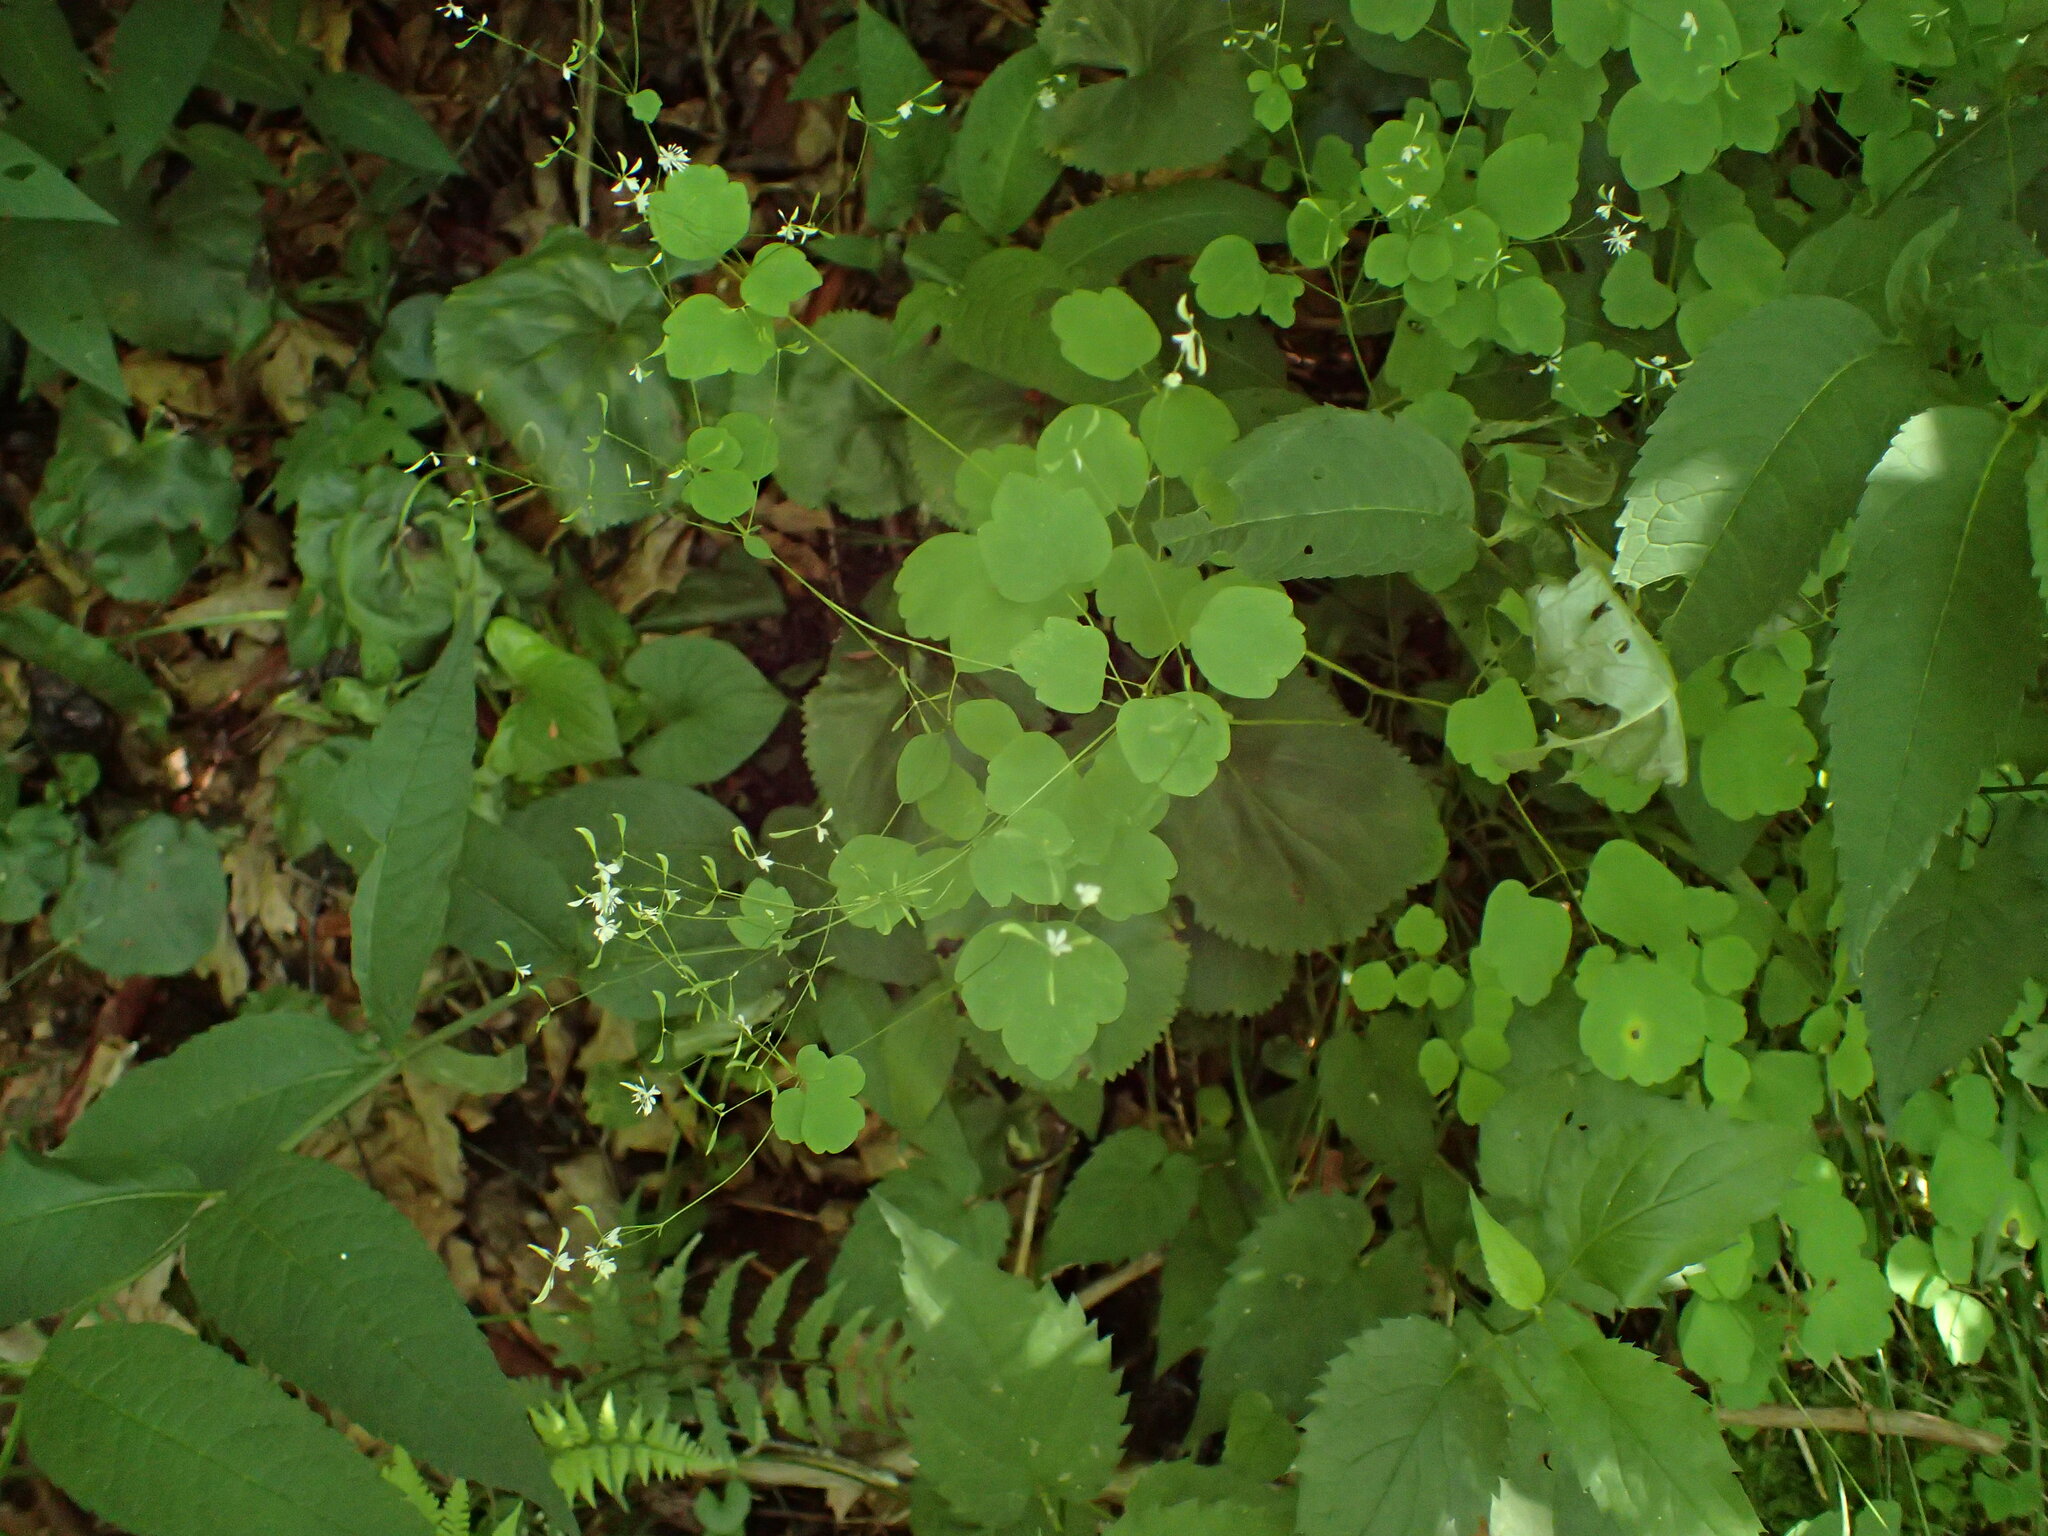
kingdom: Plantae
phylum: Tracheophyta
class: Magnoliopsida
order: Ranunculales
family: Ranunculaceae
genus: Thalictrum
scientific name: Thalictrum clavatum
